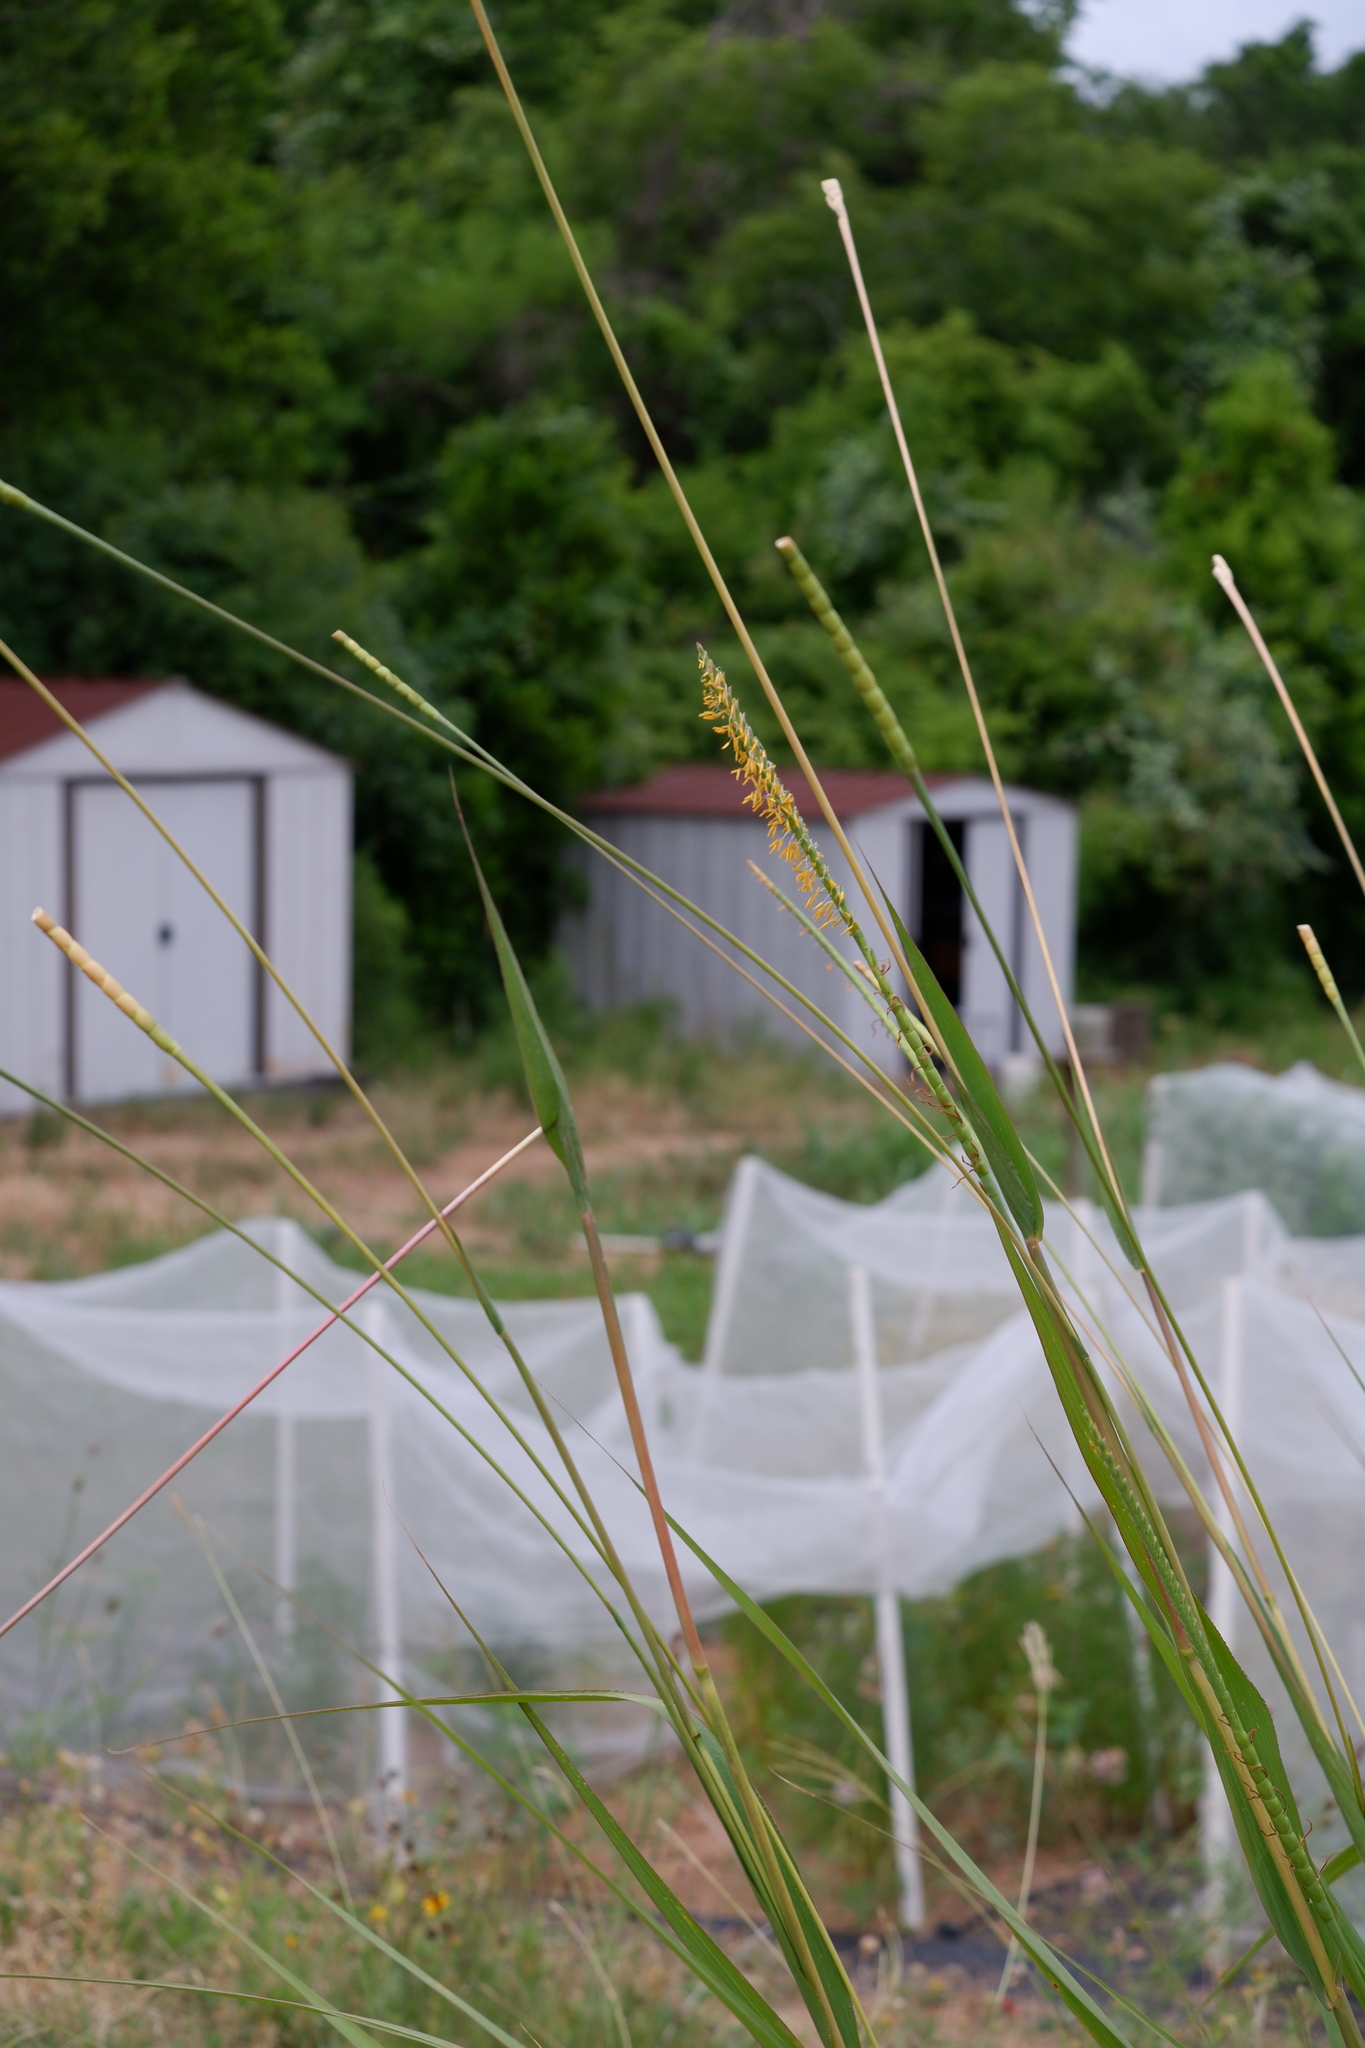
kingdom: Plantae
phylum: Tracheophyta
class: Liliopsida
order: Poales
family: Poaceae
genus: Tripsacum
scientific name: Tripsacum dactyloides
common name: Buffalo-grass
